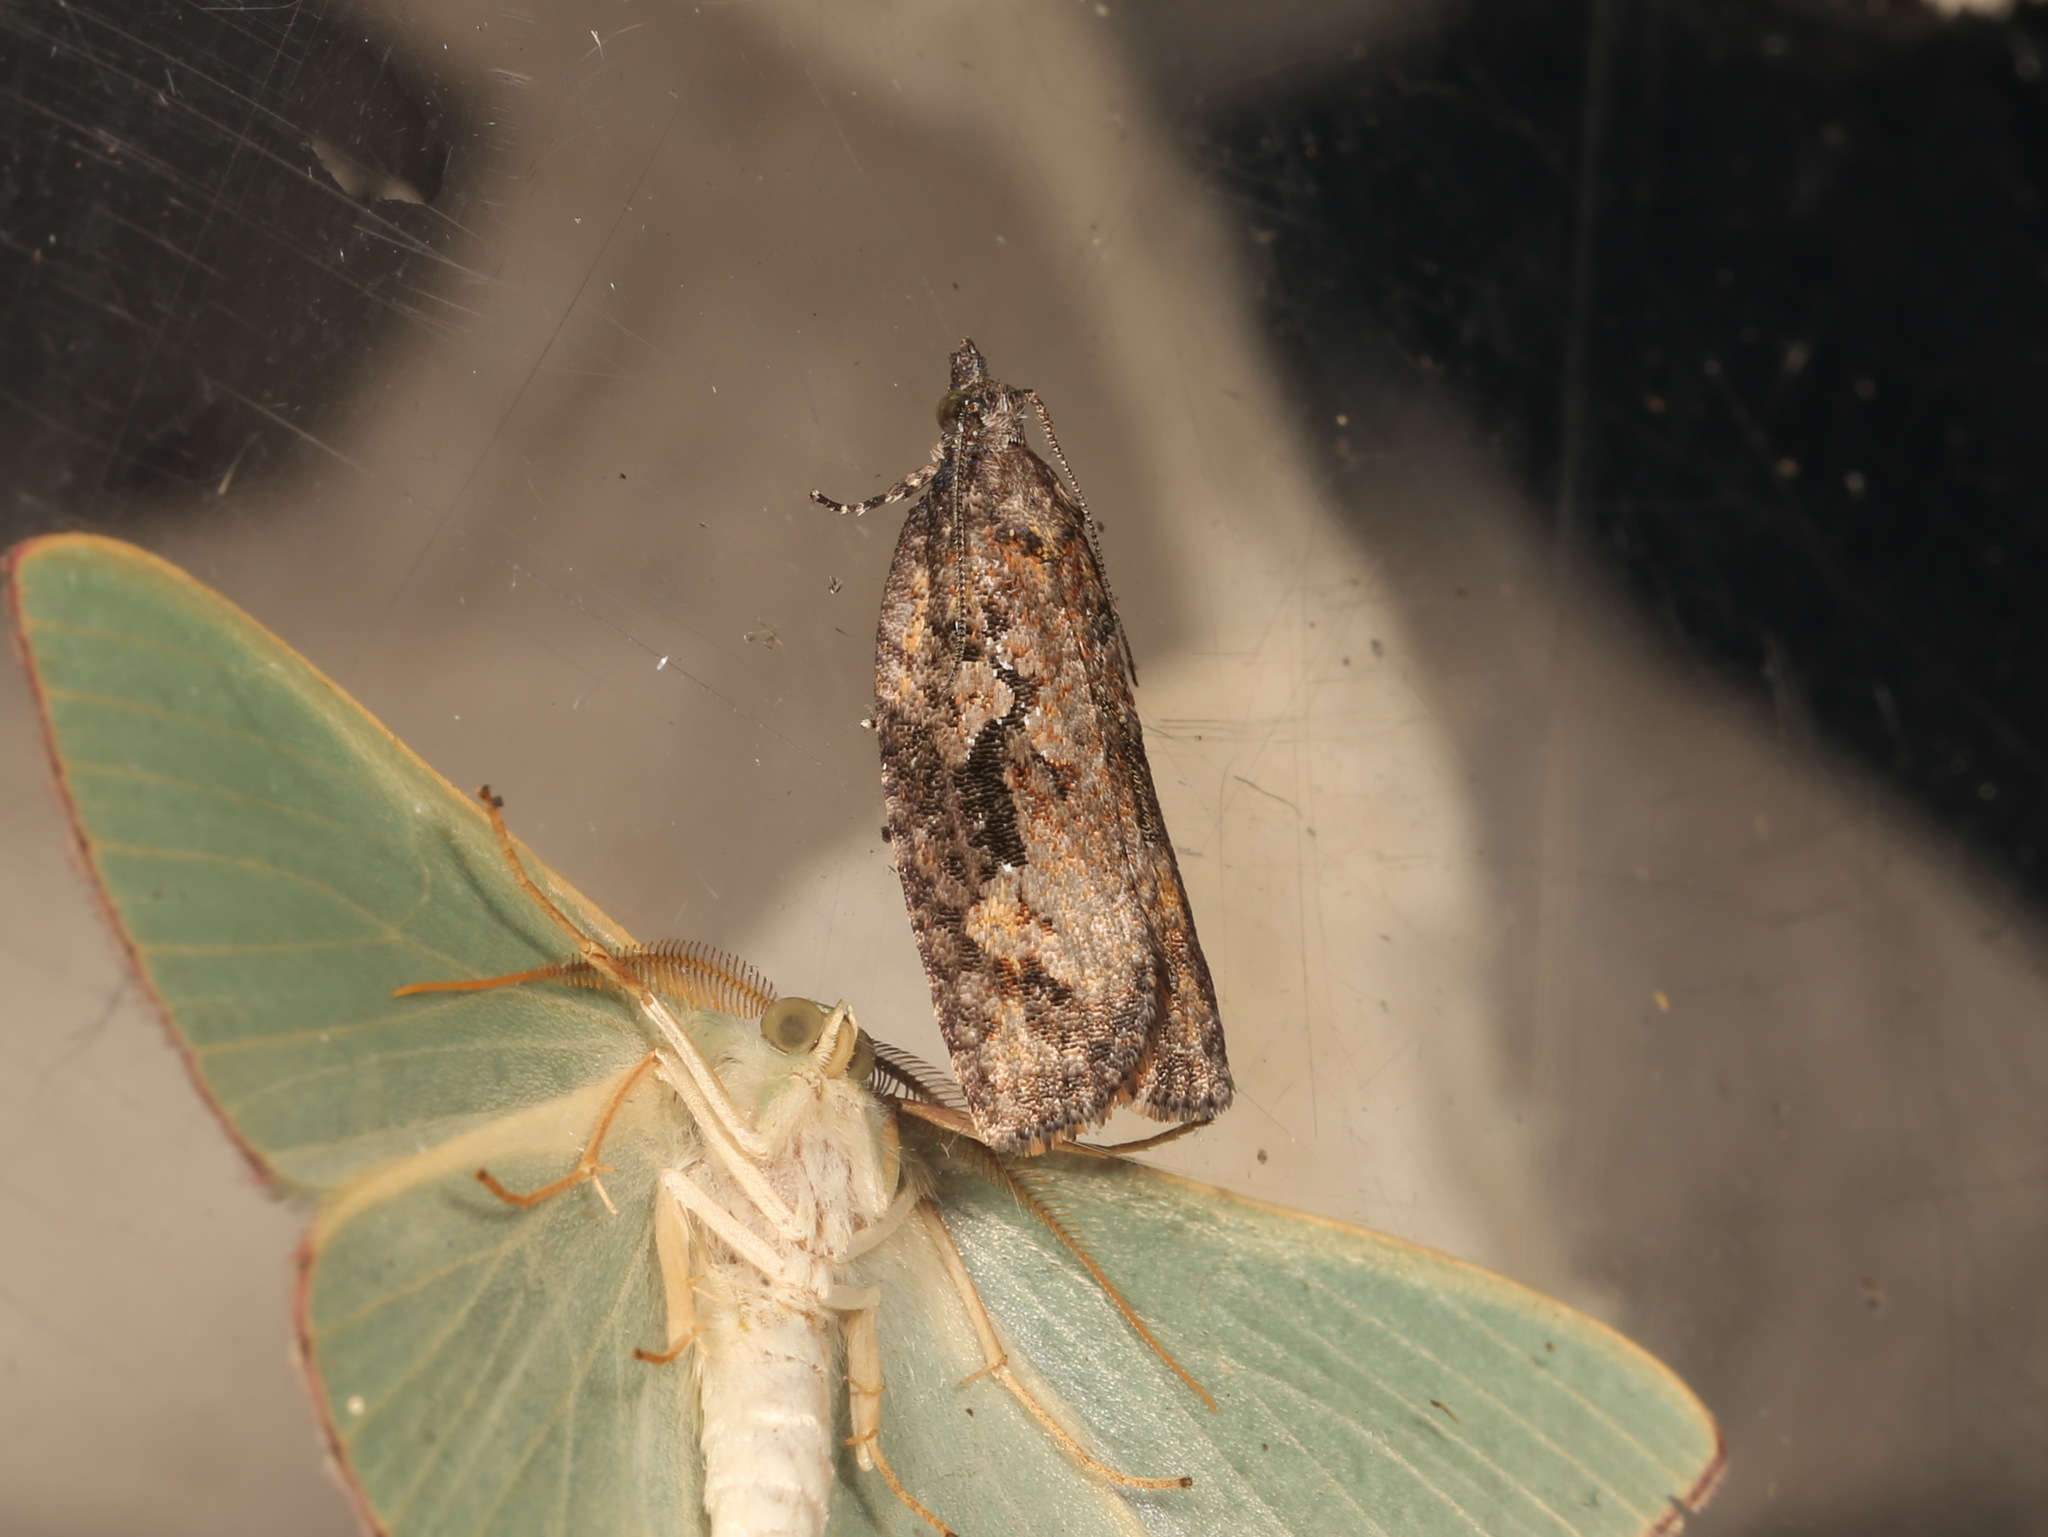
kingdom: Animalia
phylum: Arthropoda
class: Insecta
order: Lepidoptera
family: Tortricidae
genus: Thrincophora
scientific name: Thrincophora lignigerana
